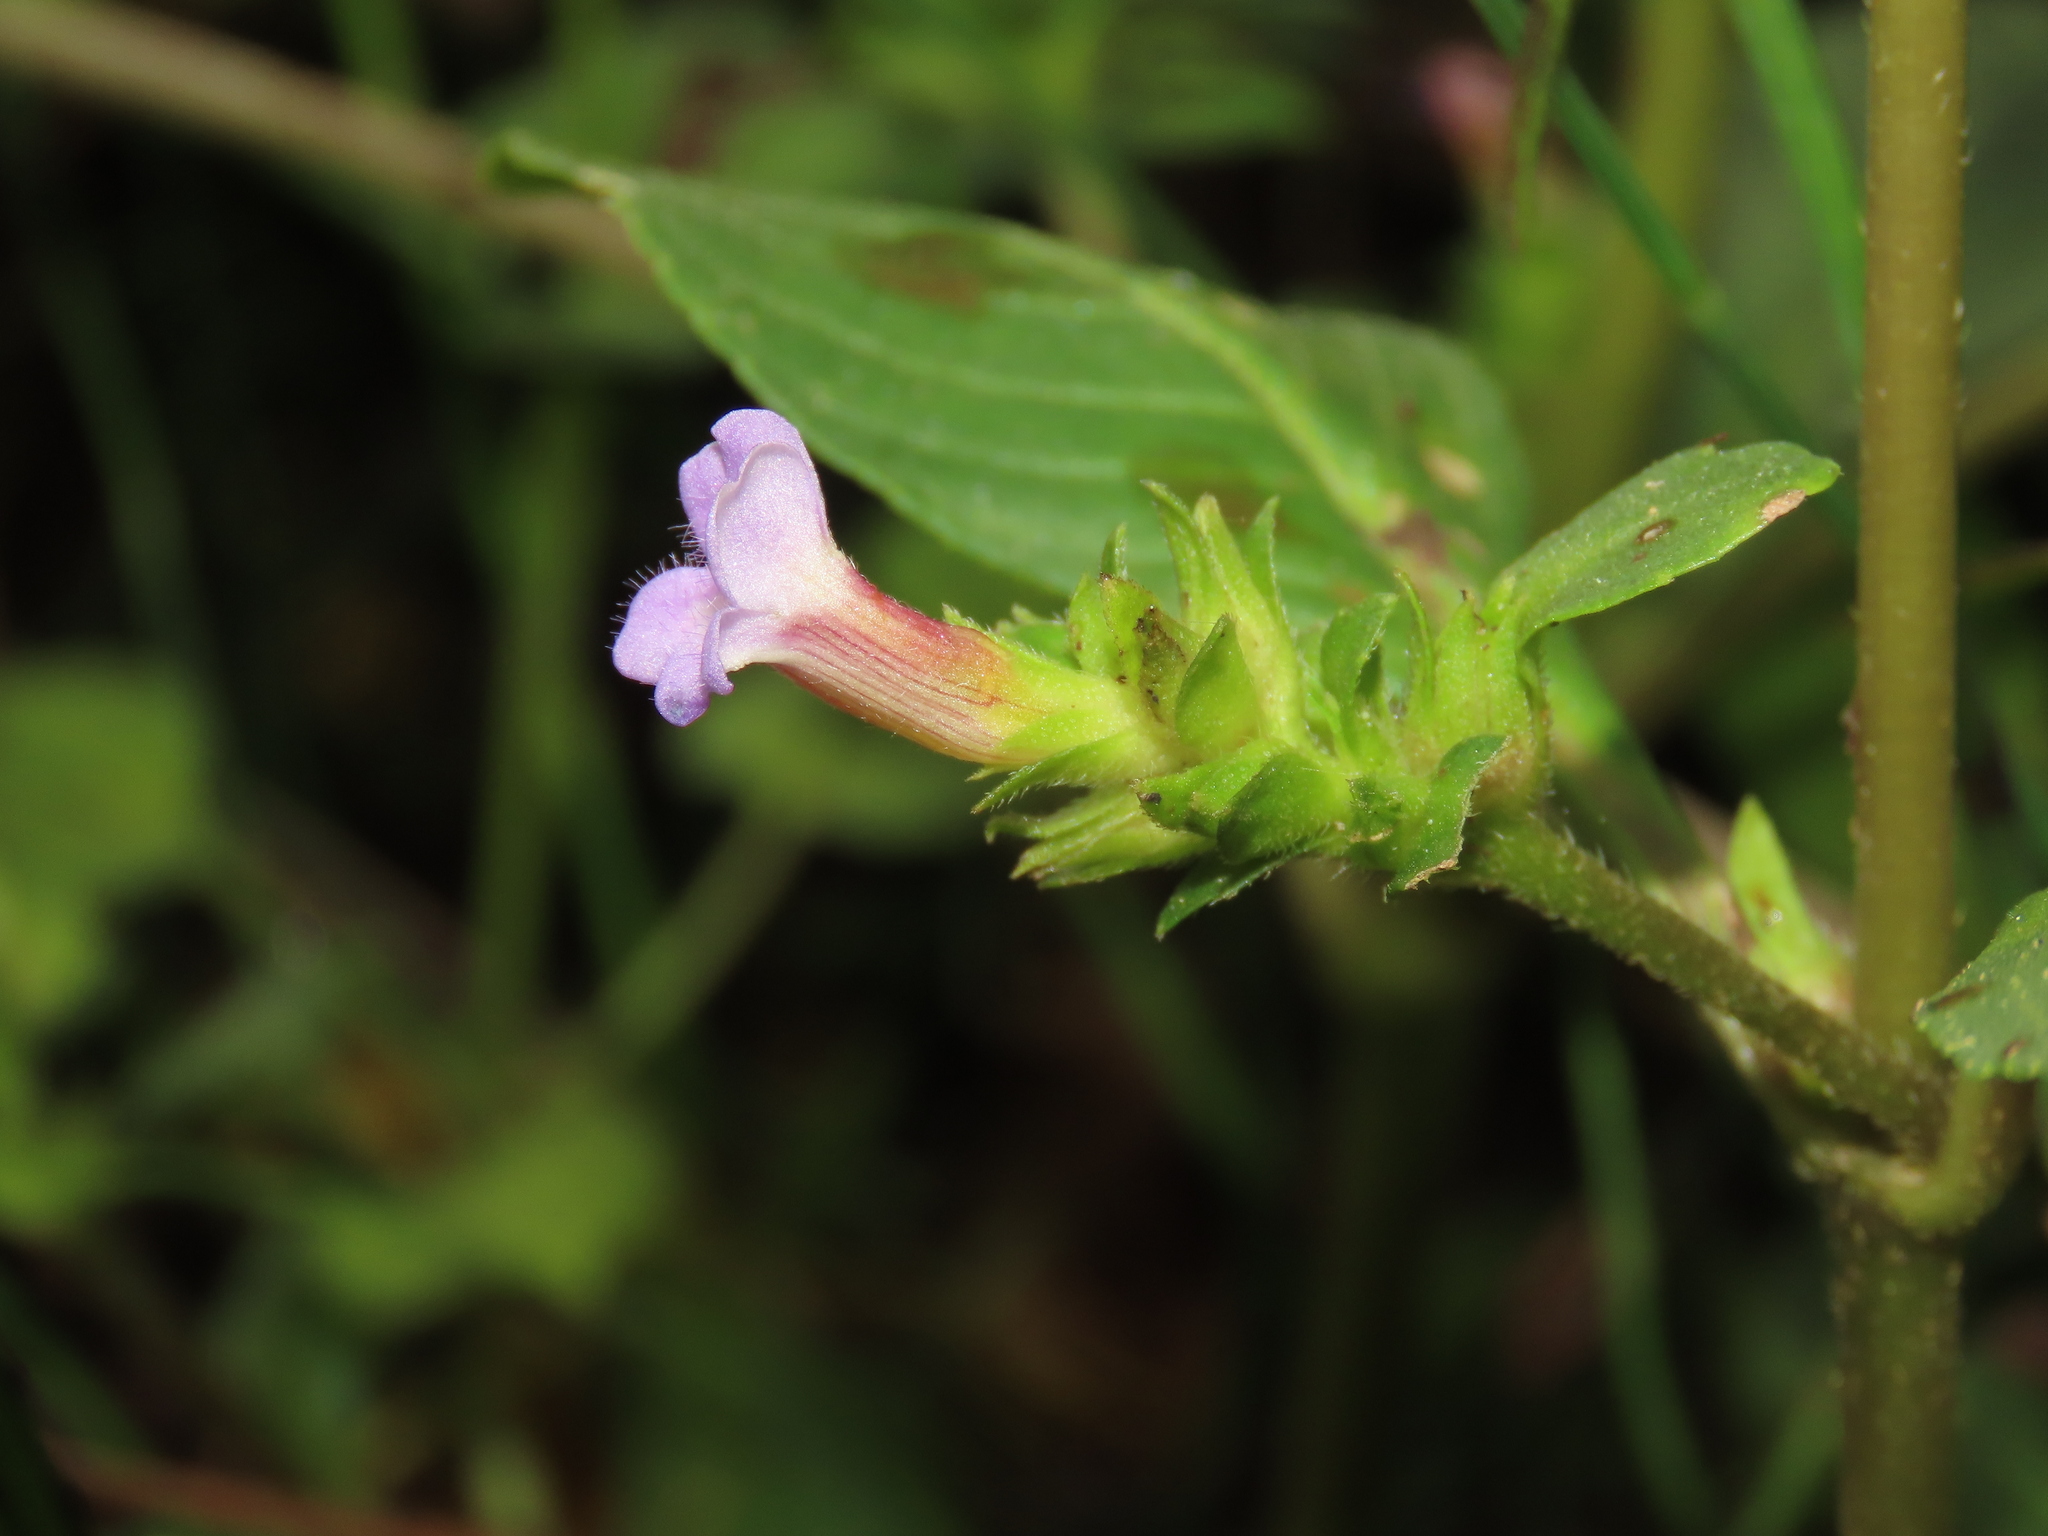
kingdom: Plantae
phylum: Tracheophyta
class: Magnoliopsida
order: Lamiales
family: Plantaginaceae
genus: Limnophila
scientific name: Limnophila rugosa
